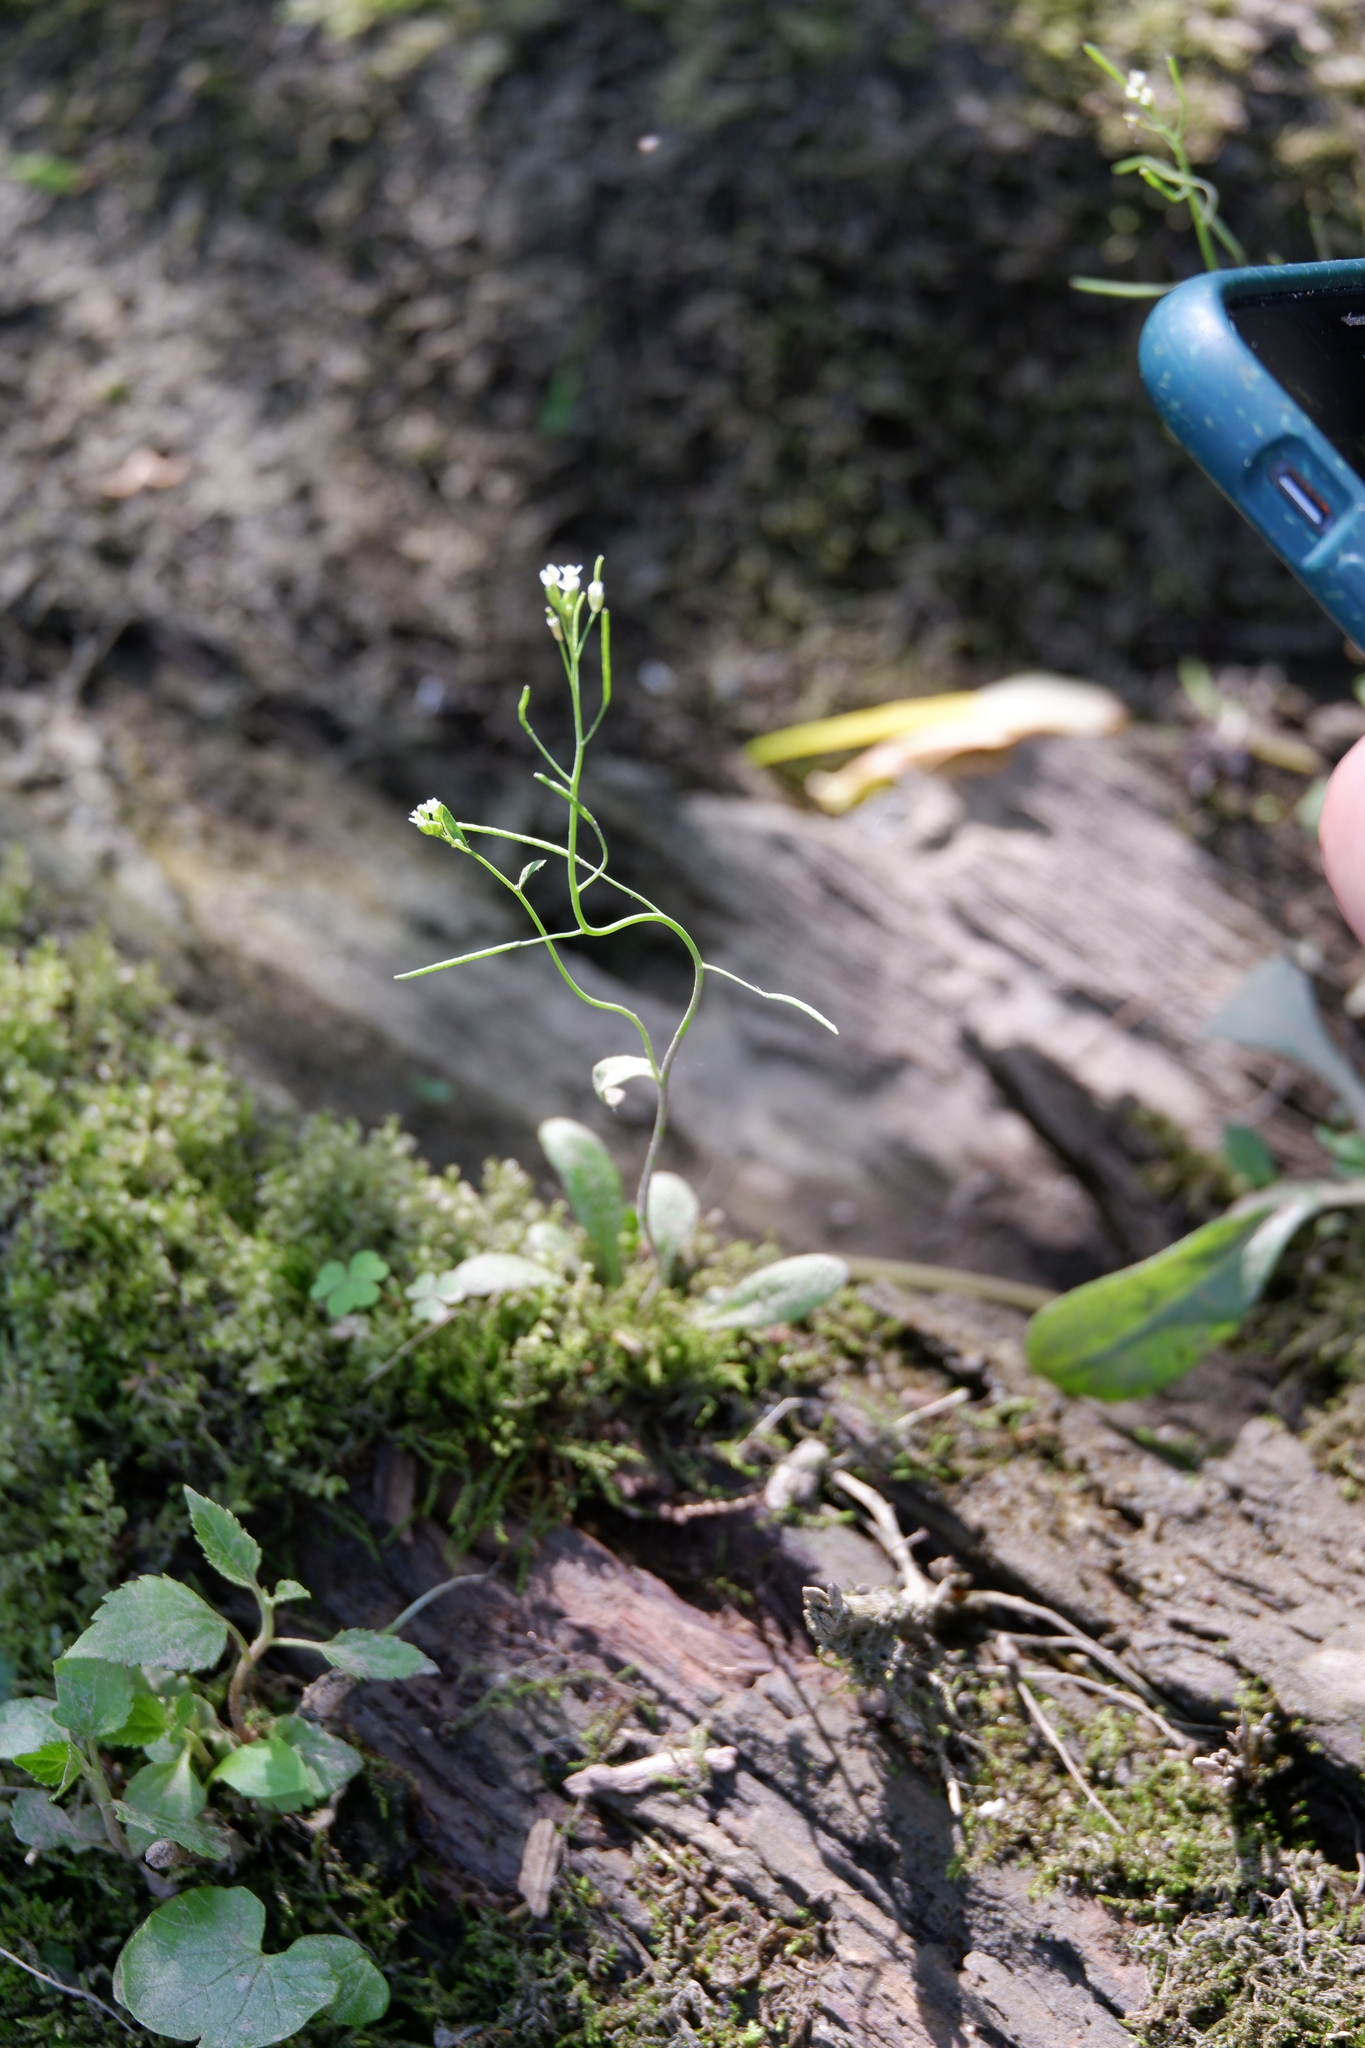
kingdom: Plantae
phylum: Tracheophyta
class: Magnoliopsida
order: Brassicales
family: Brassicaceae
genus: Arabidopsis
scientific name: Arabidopsis thaliana
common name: Thale cress
